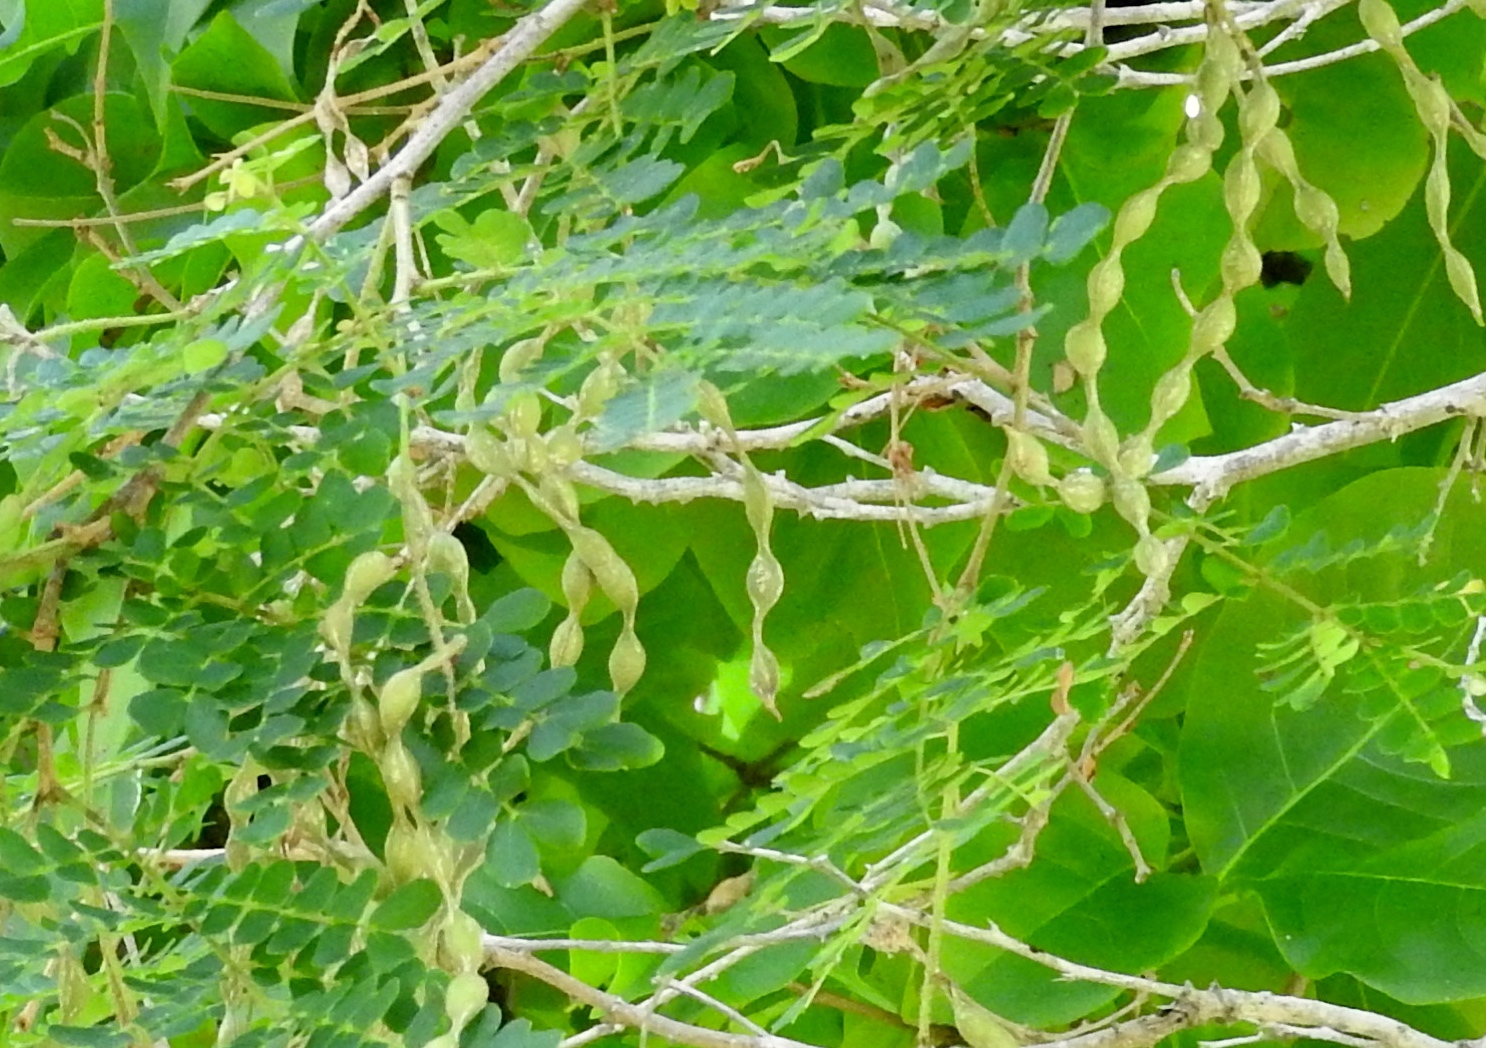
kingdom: Plantae
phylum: Tracheophyta
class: Magnoliopsida
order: Fabales
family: Fabaceae
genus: Pityrocarpa
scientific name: Pityrocarpa obliqua
